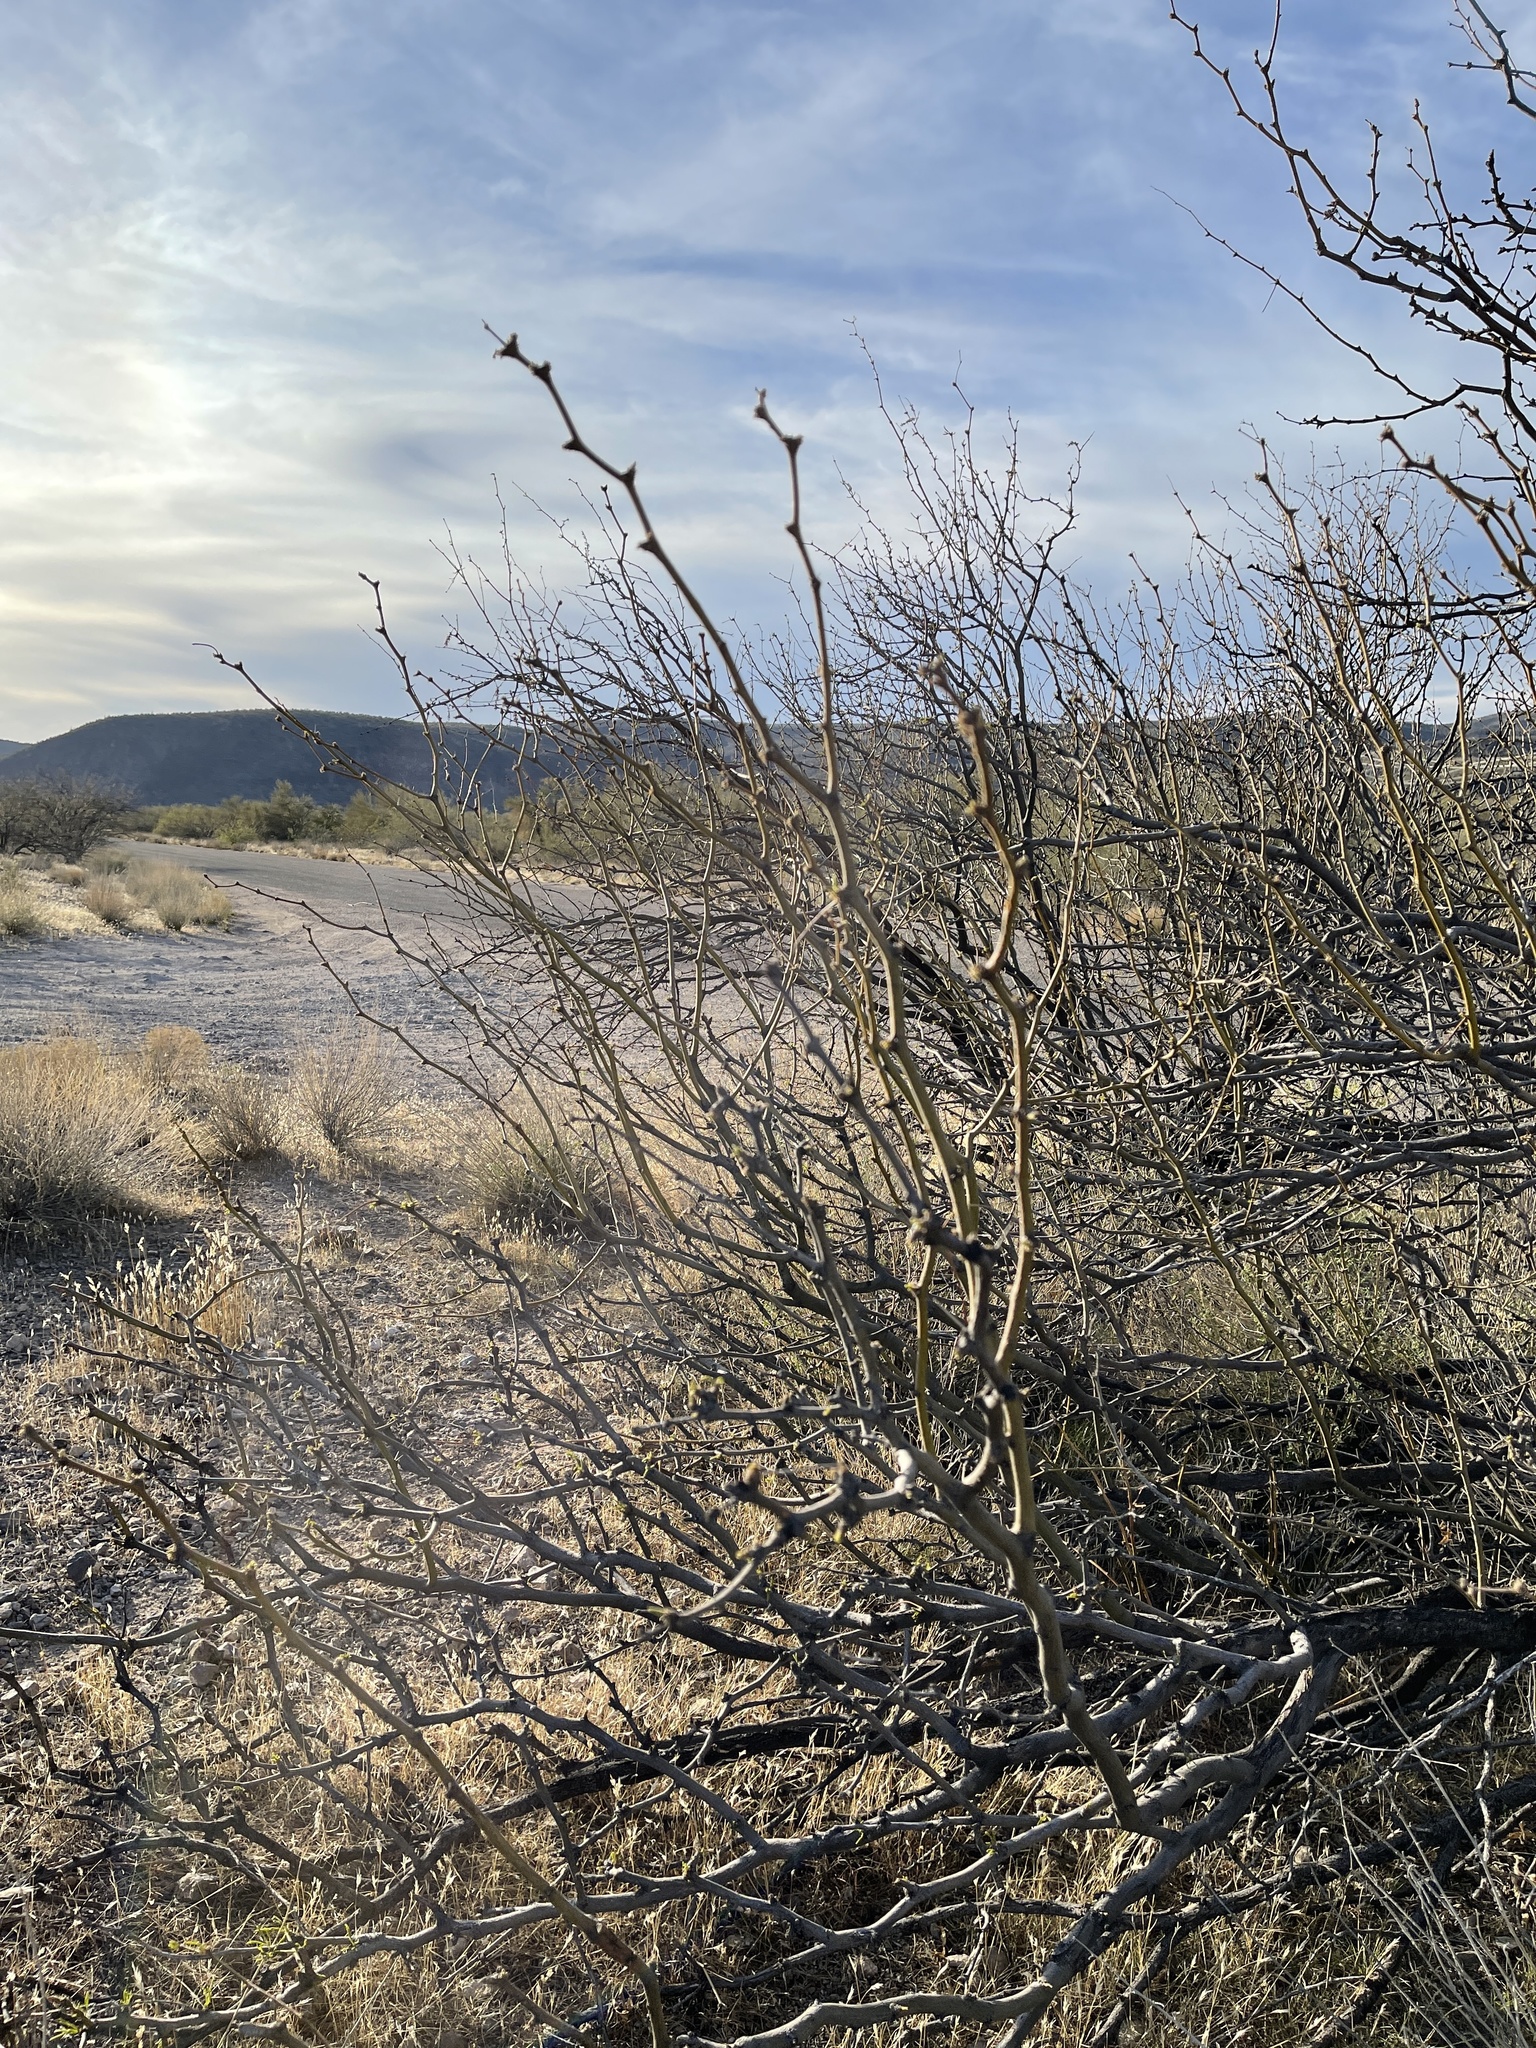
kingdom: Plantae
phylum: Tracheophyta
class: Magnoliopsida
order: Fabales
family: Fabaceae
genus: Prosopis
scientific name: Prosopis glandulosa
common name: Honey mesquite
